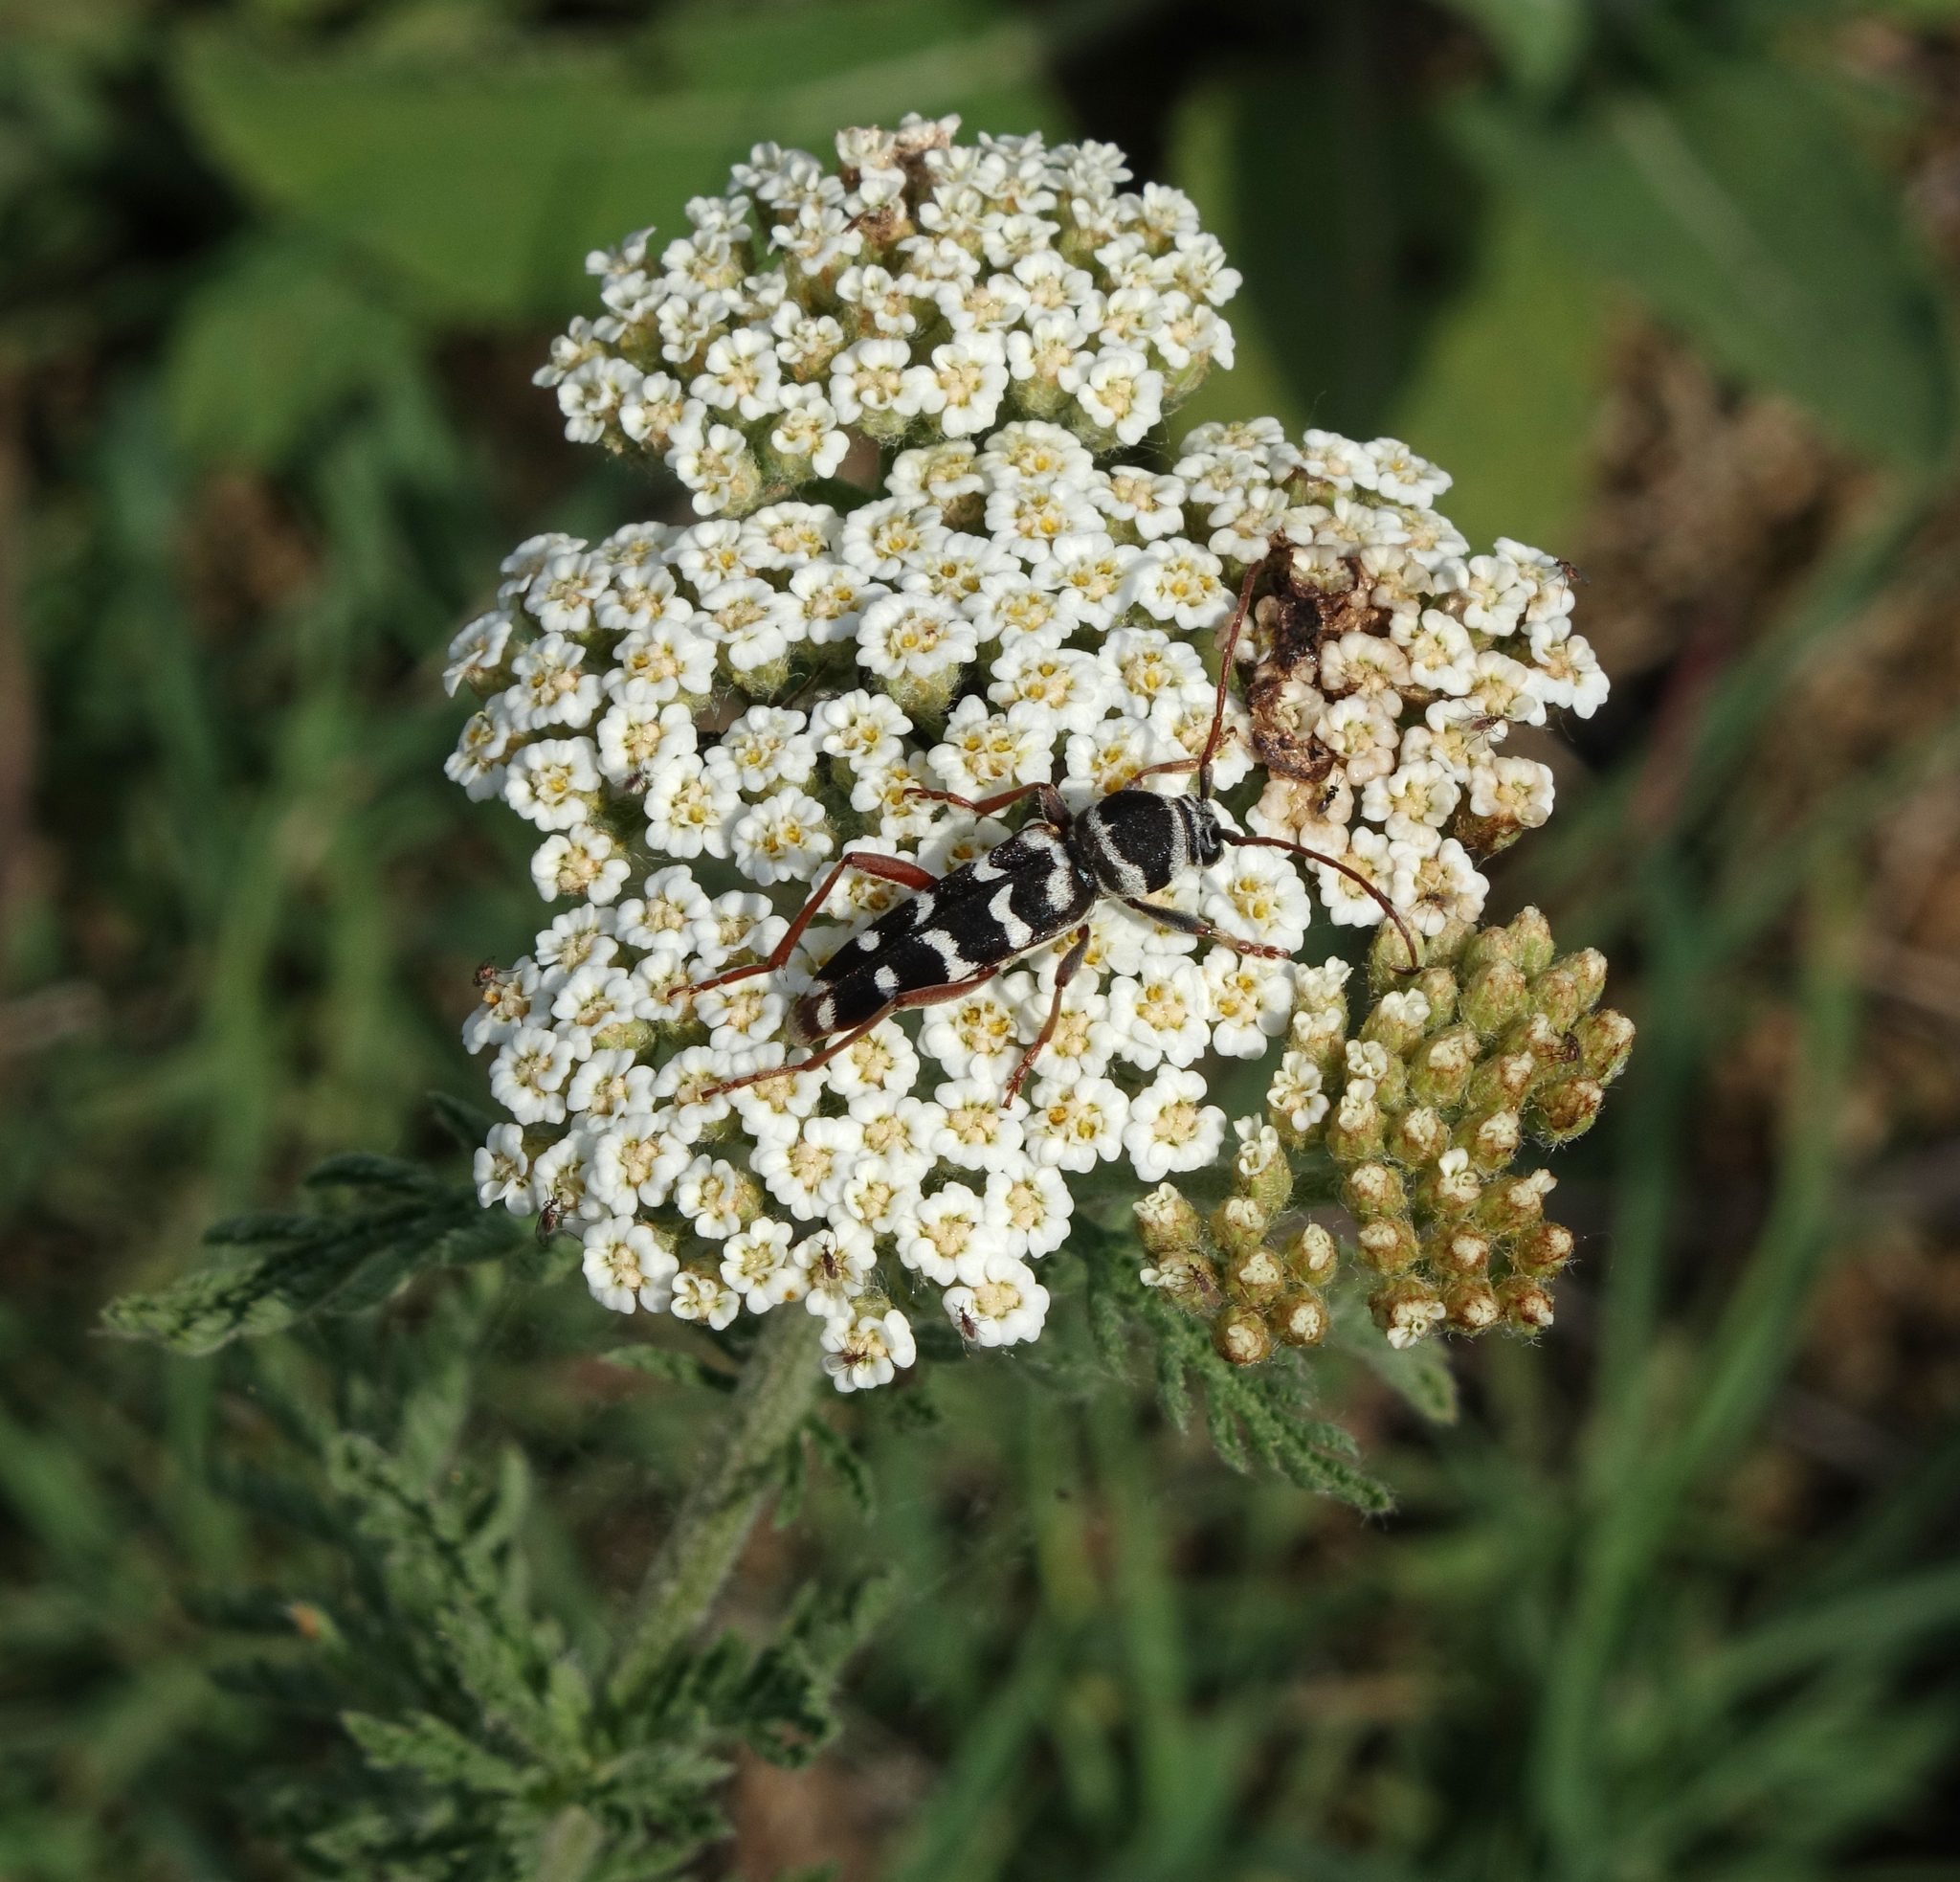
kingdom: Animalia
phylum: Arthropoda
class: Insecta
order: Coleoptera
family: Cerambycidae
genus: Plagionotus
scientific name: Plagionotus floralis
